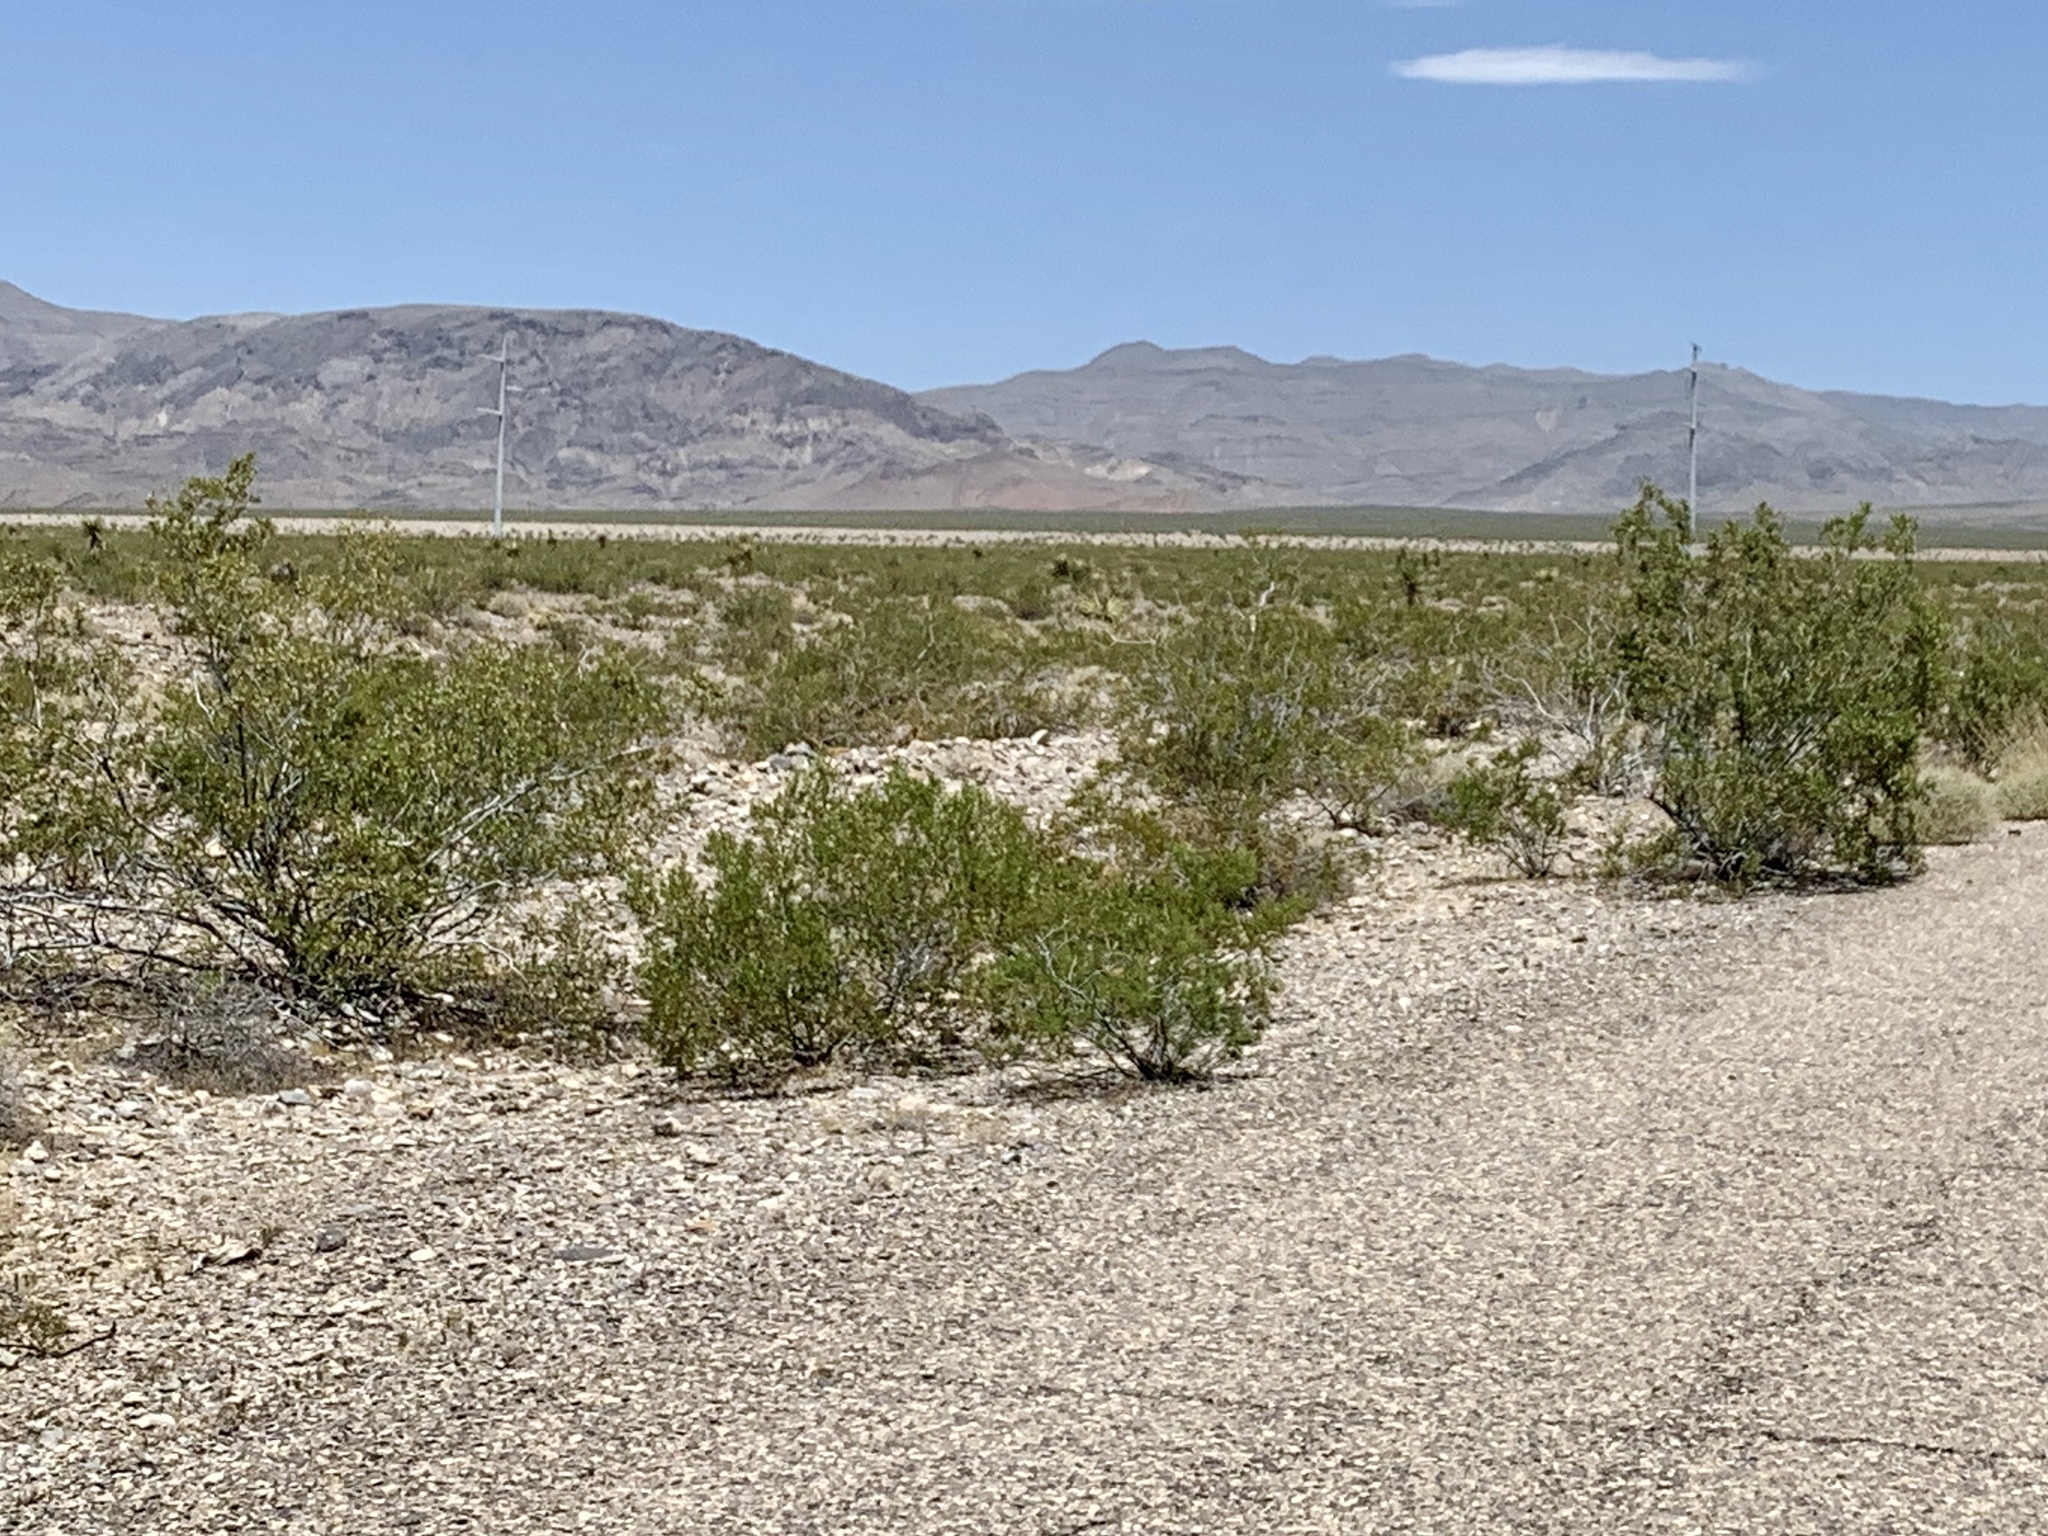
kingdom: Plantae
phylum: Tracheophyta
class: Magnoliopsida
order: Zygophyllales
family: Zygophyllaceae
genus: Larrea
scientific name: Larrea tridentata
